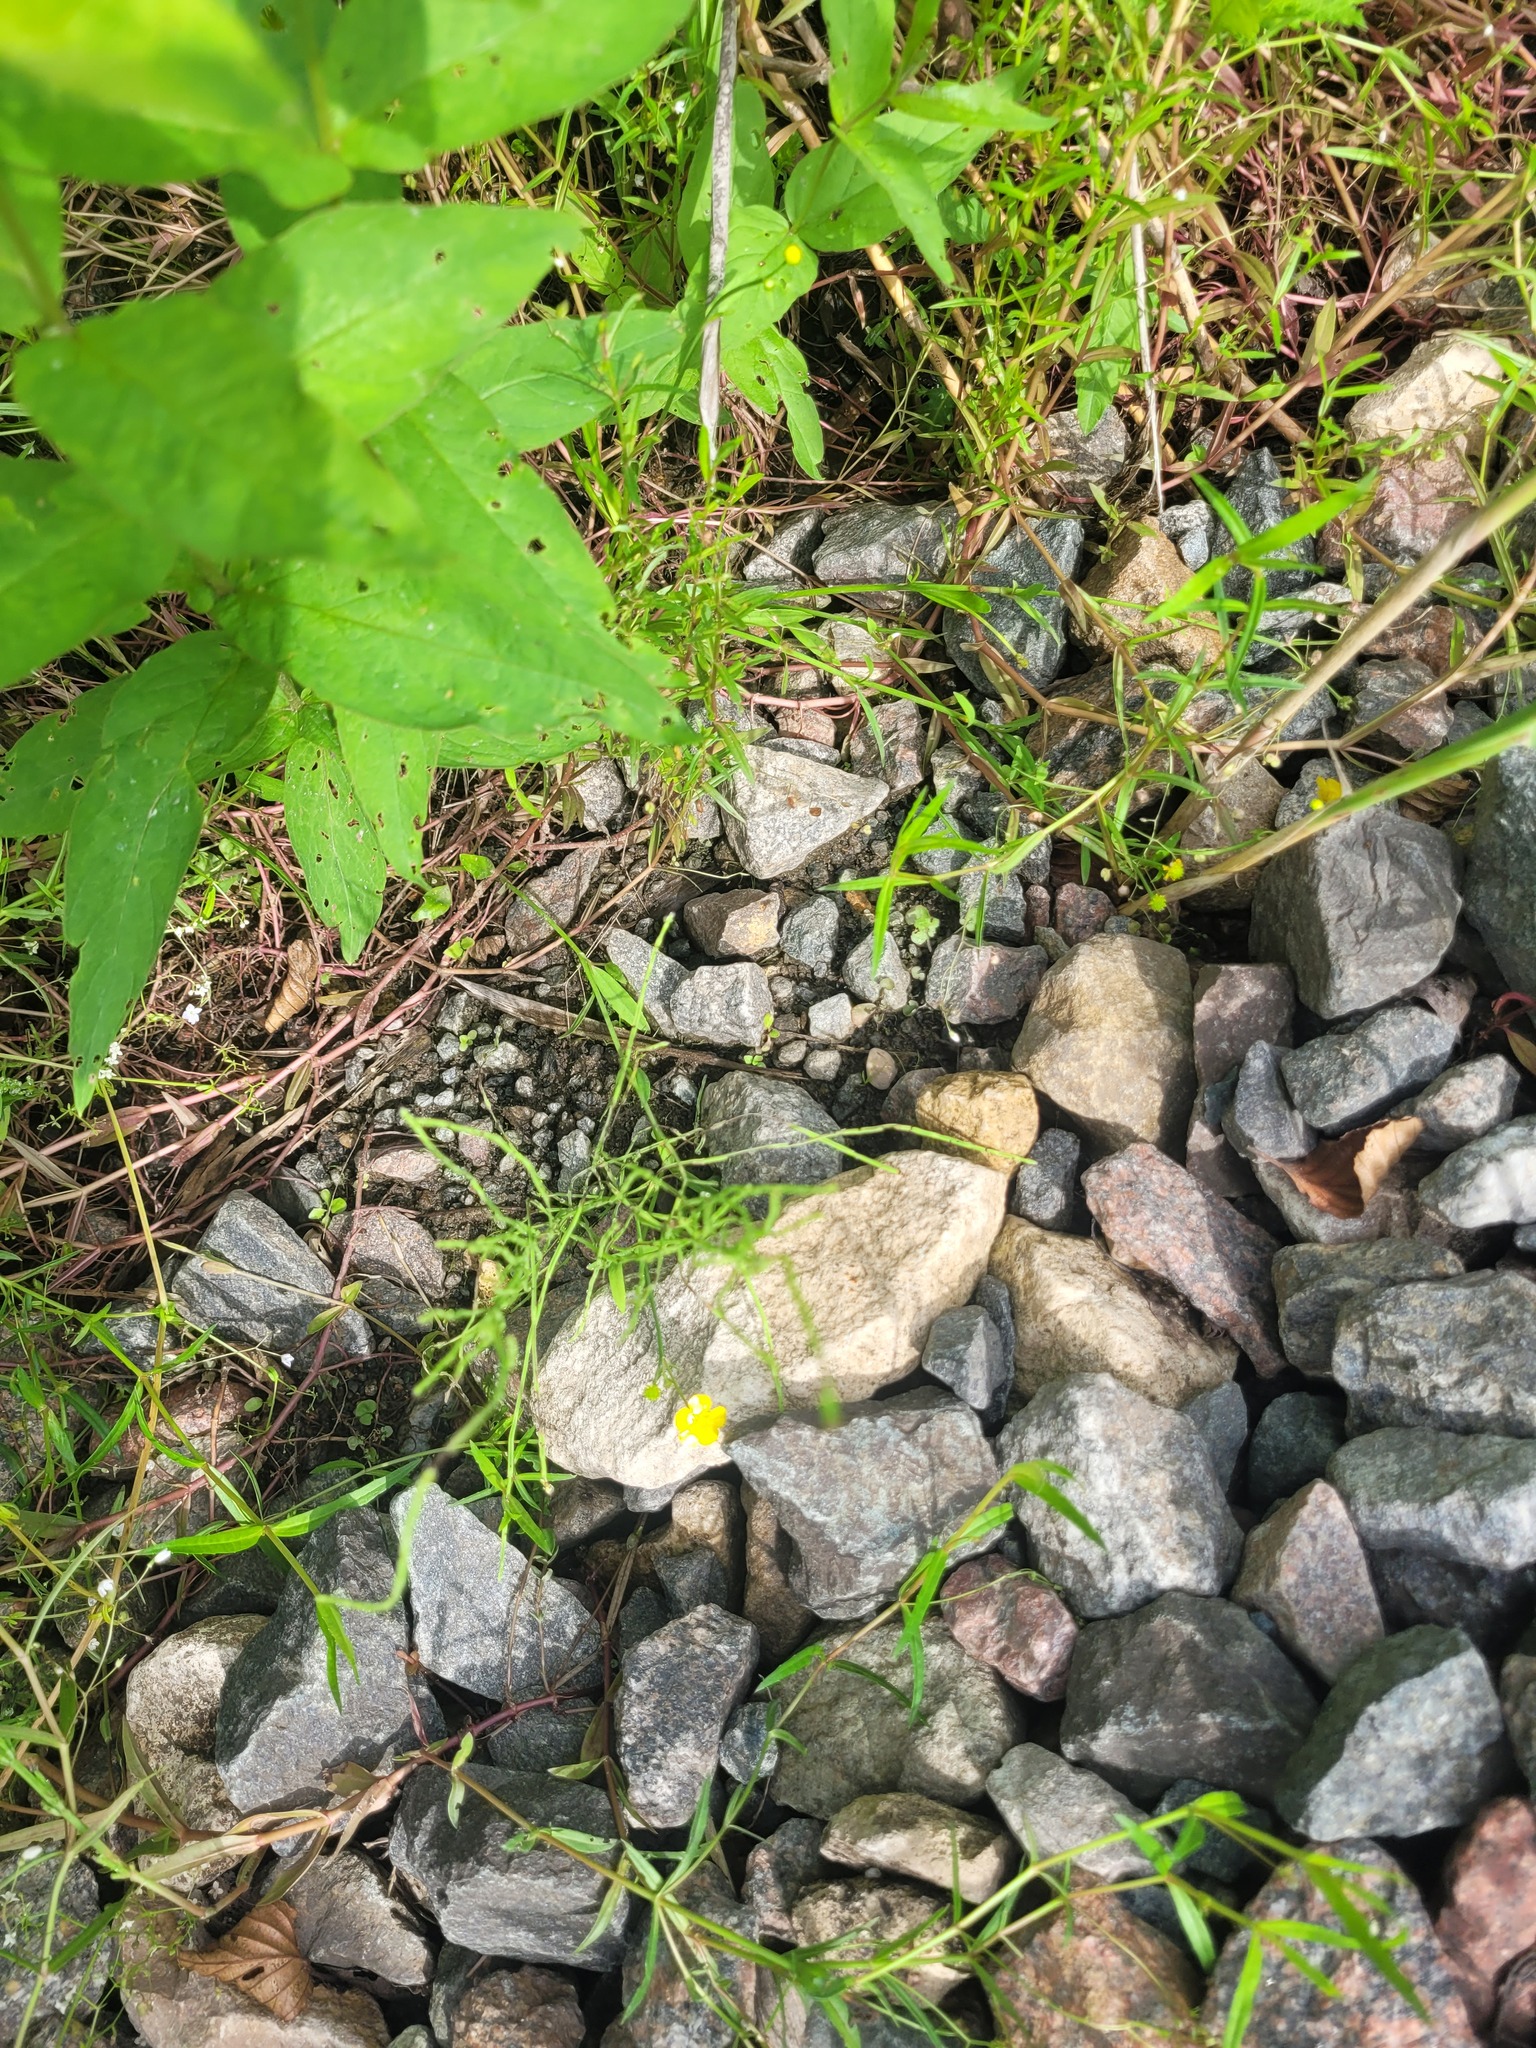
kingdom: Plantae
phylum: Tracheophyta
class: Magnoliopsida
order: Ranunculales
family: Ranunculaceae
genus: Ranunculus
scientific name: Ranunculus flammula
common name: Lesser spearwort
